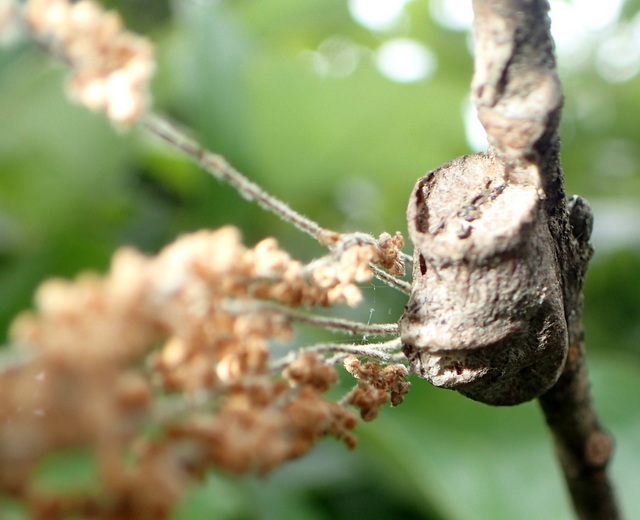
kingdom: Animalia
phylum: Arthropoda
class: Insecta
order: Lepidoptera
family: Megalopygidae
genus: Megalopyge
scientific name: Megalopyge
